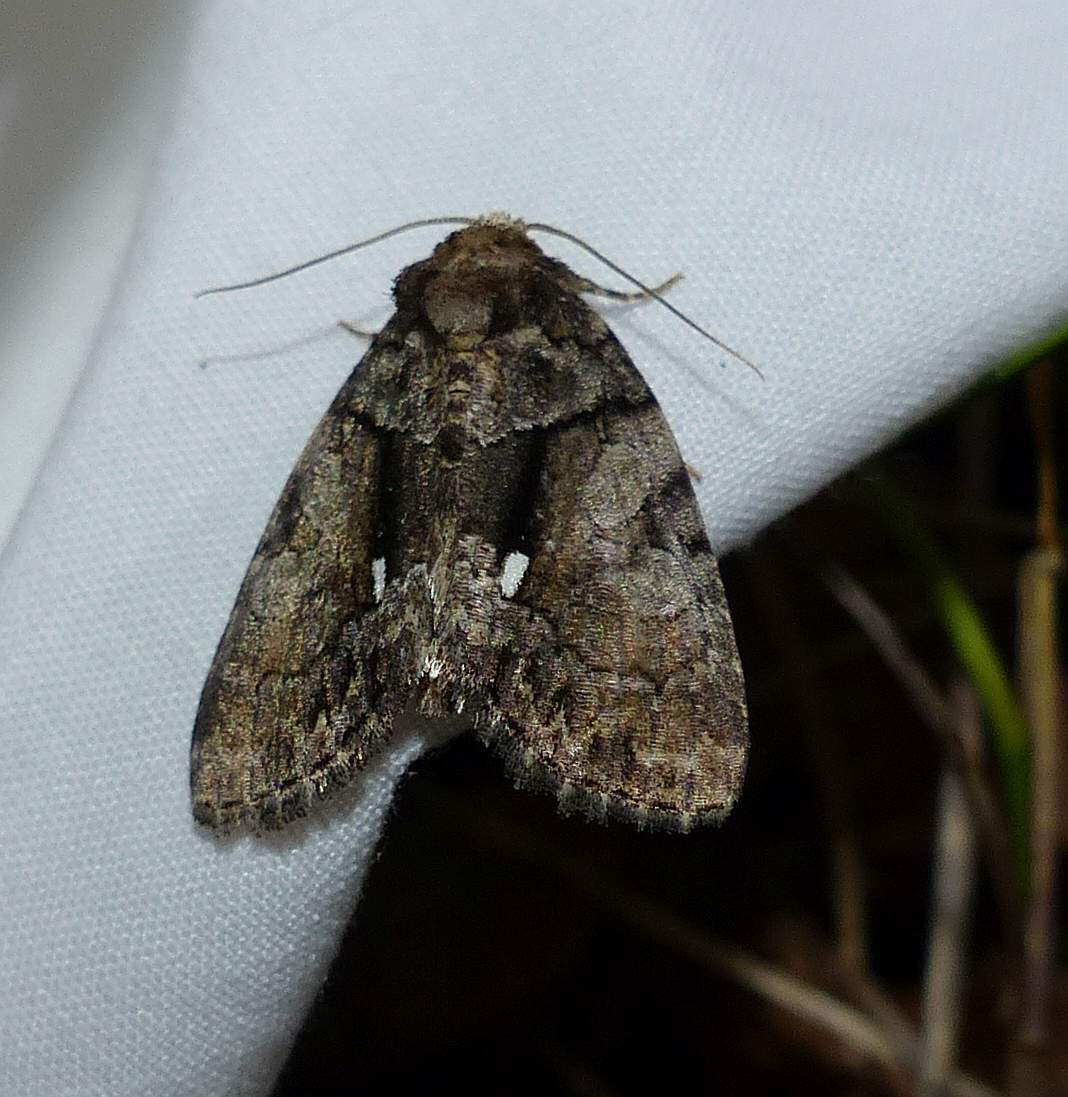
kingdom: Animalia
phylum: Arthropoda
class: Insecta
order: Lepidoptera
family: Noctuidae
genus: Chytonix
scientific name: Chytonix palliatricula
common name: Cloaked marvel
